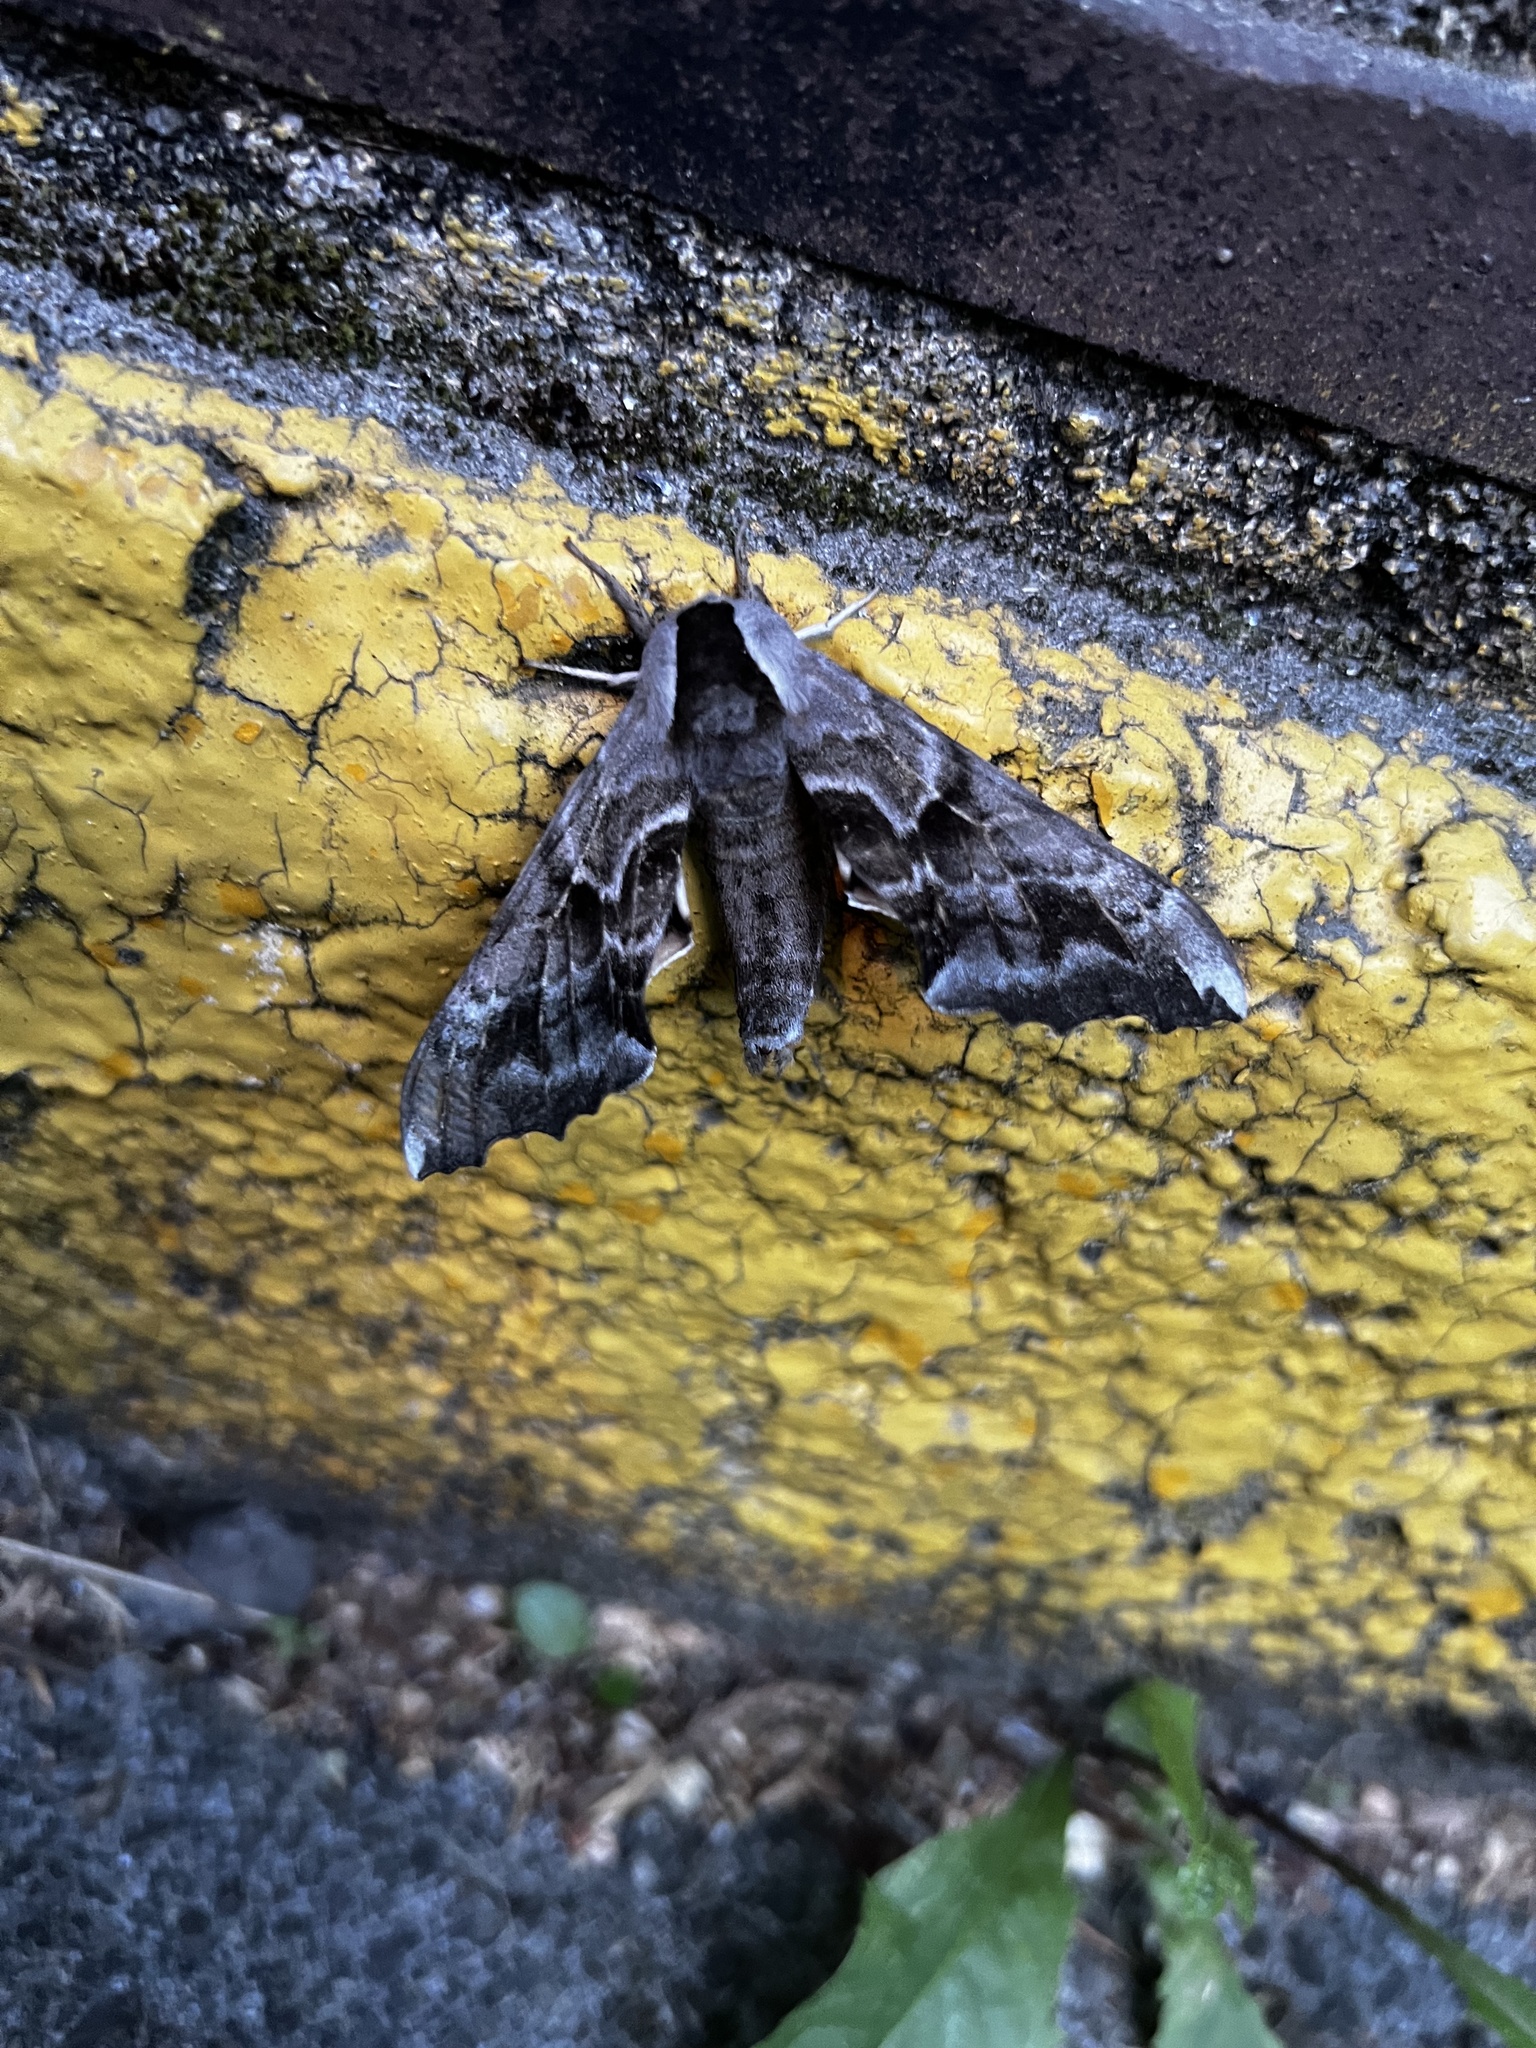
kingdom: Animalia
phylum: Arthropoda
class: Insecta
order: Lepidoptera
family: Sphingidae
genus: Smerinthus
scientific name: Smerinthus cerisyi
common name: Cerisy's sphinx moth
